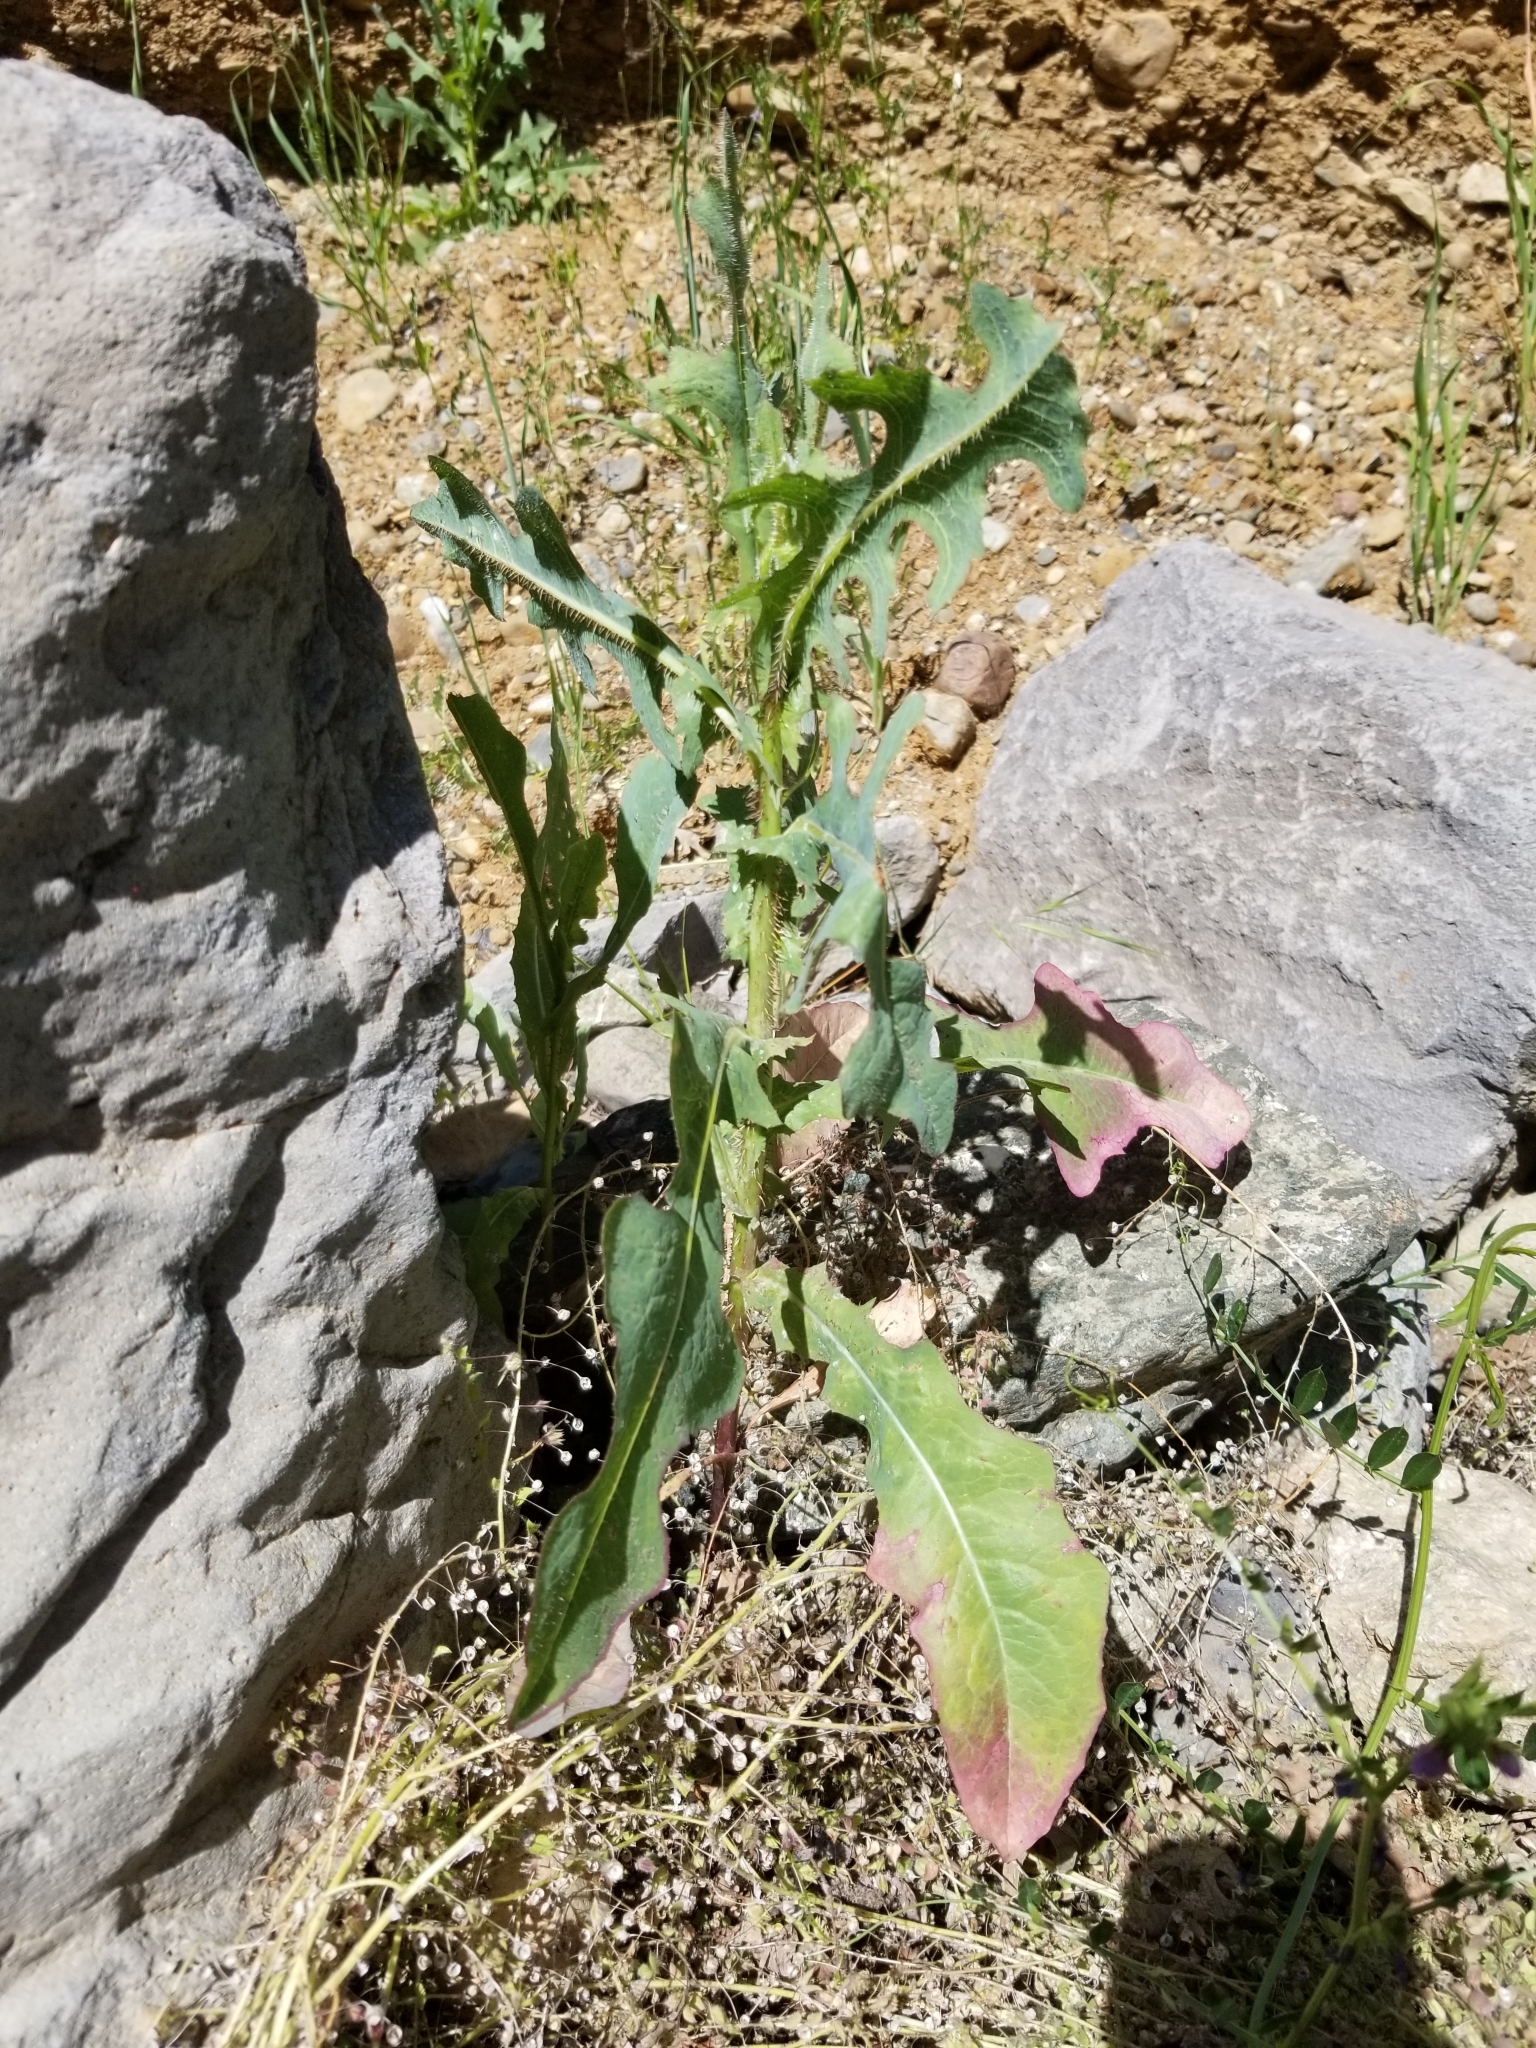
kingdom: Plantae
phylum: Tracheophyta
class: Magnoliopsida
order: Asterales
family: Asteraceae
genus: Lactuca
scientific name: Lactuca serriola
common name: Prickly lettuce
